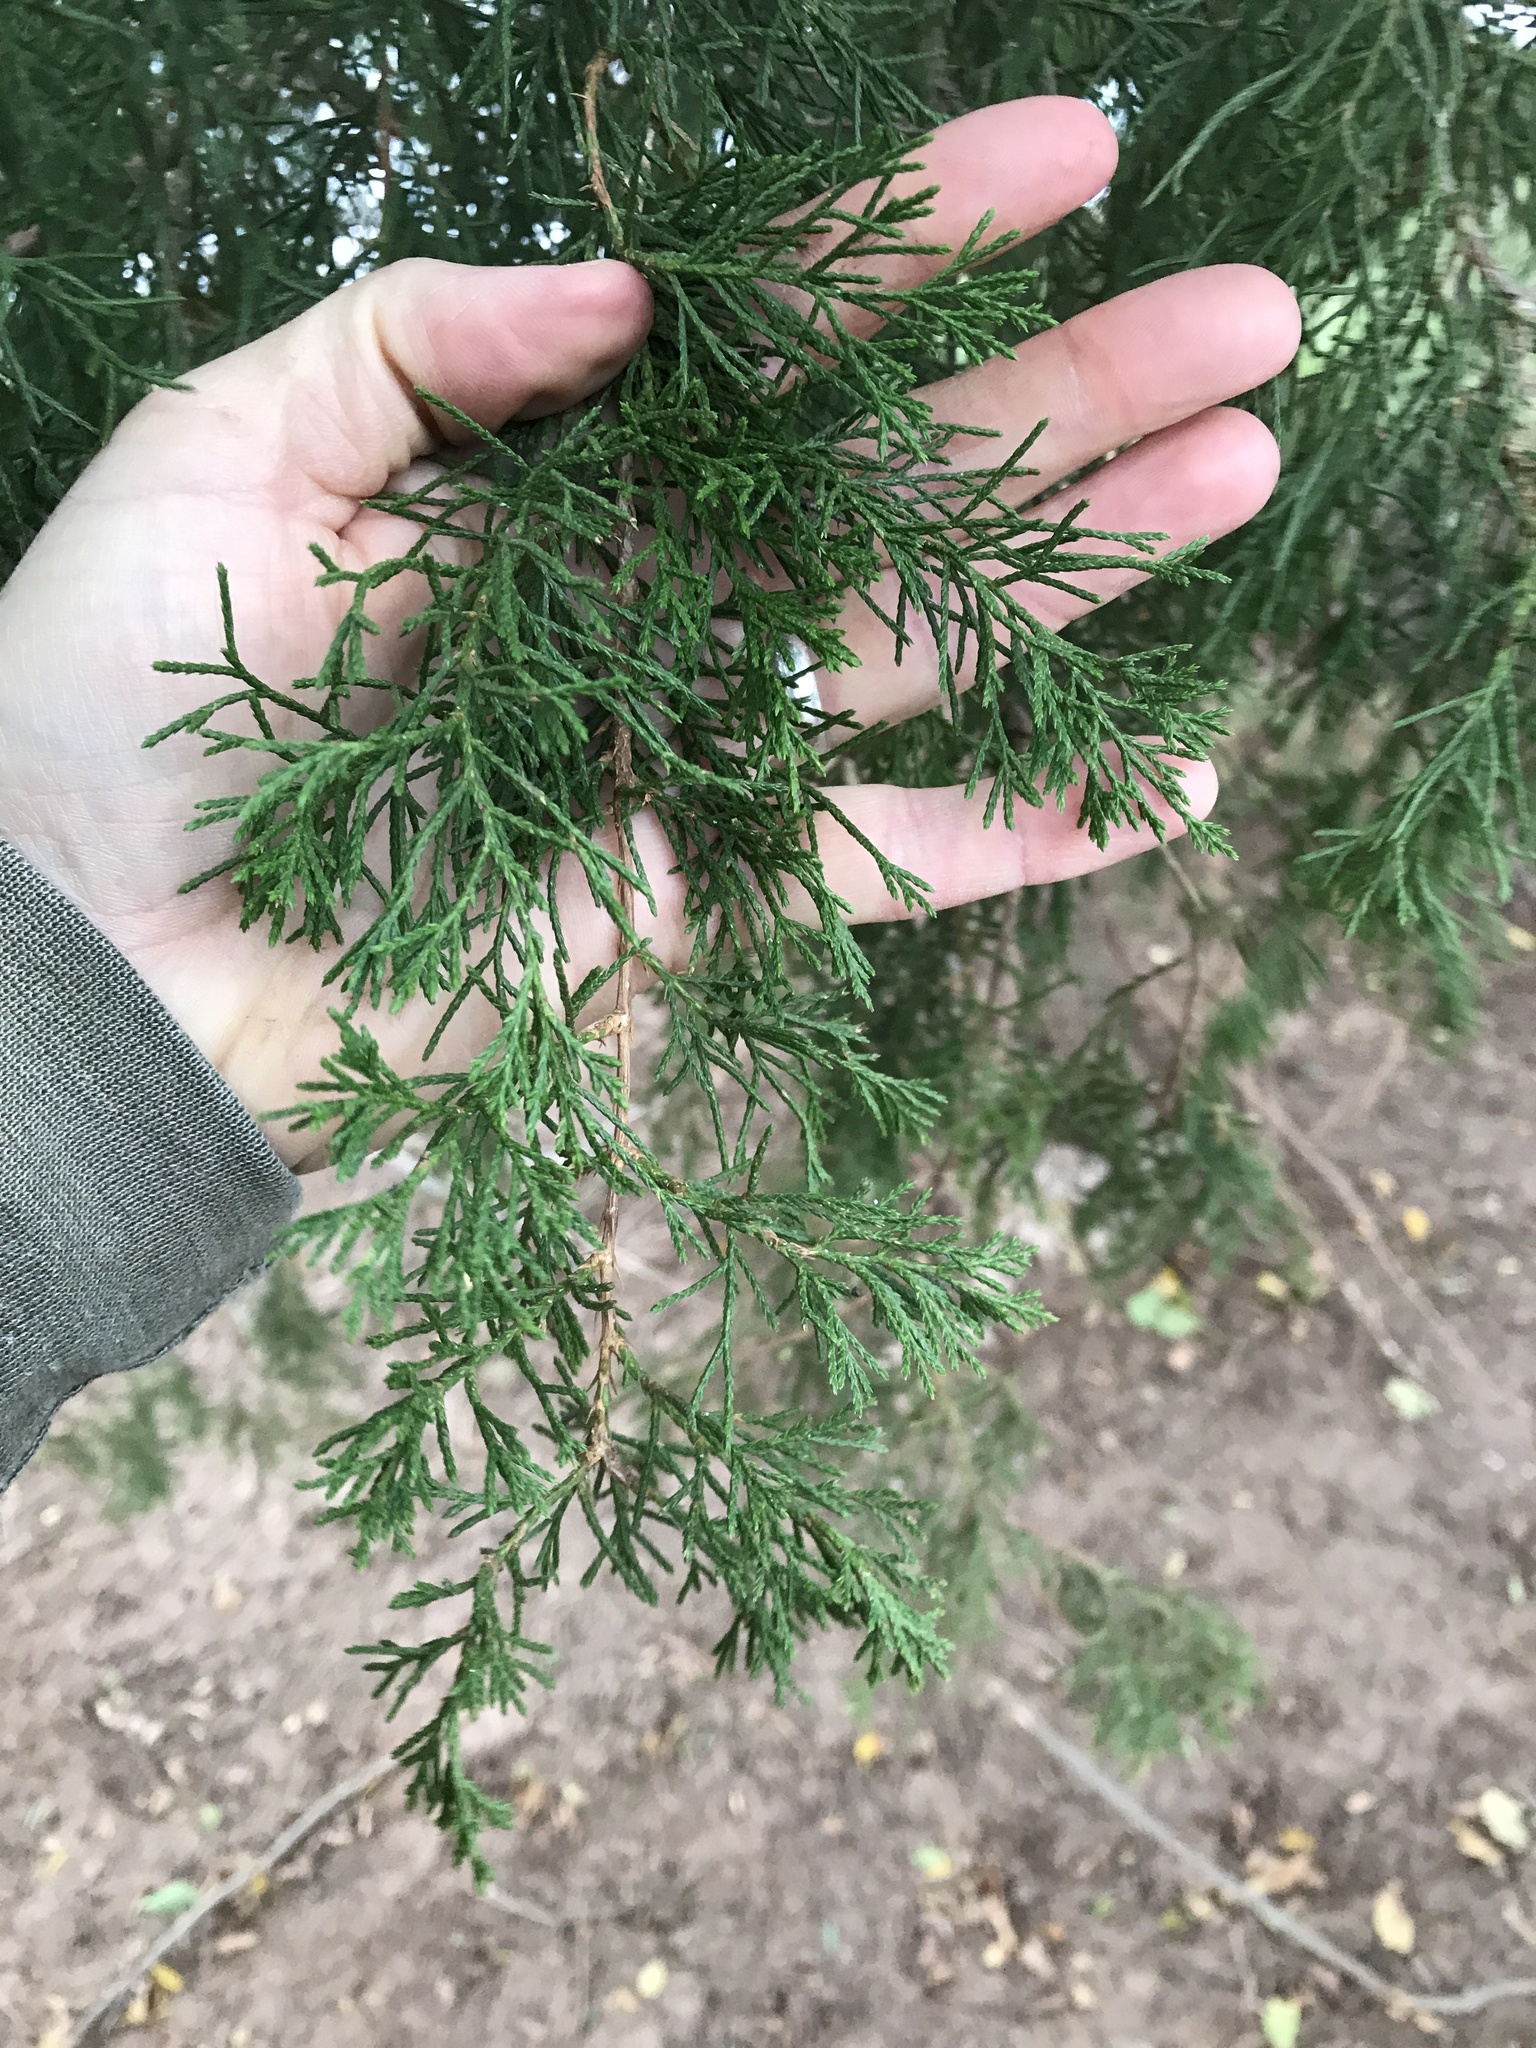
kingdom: Plantae
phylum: Tracheophyta
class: Pinopsida
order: Pinales
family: Cupressaceae
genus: Juniperus
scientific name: Juniperus virginiana
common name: Red juniper
